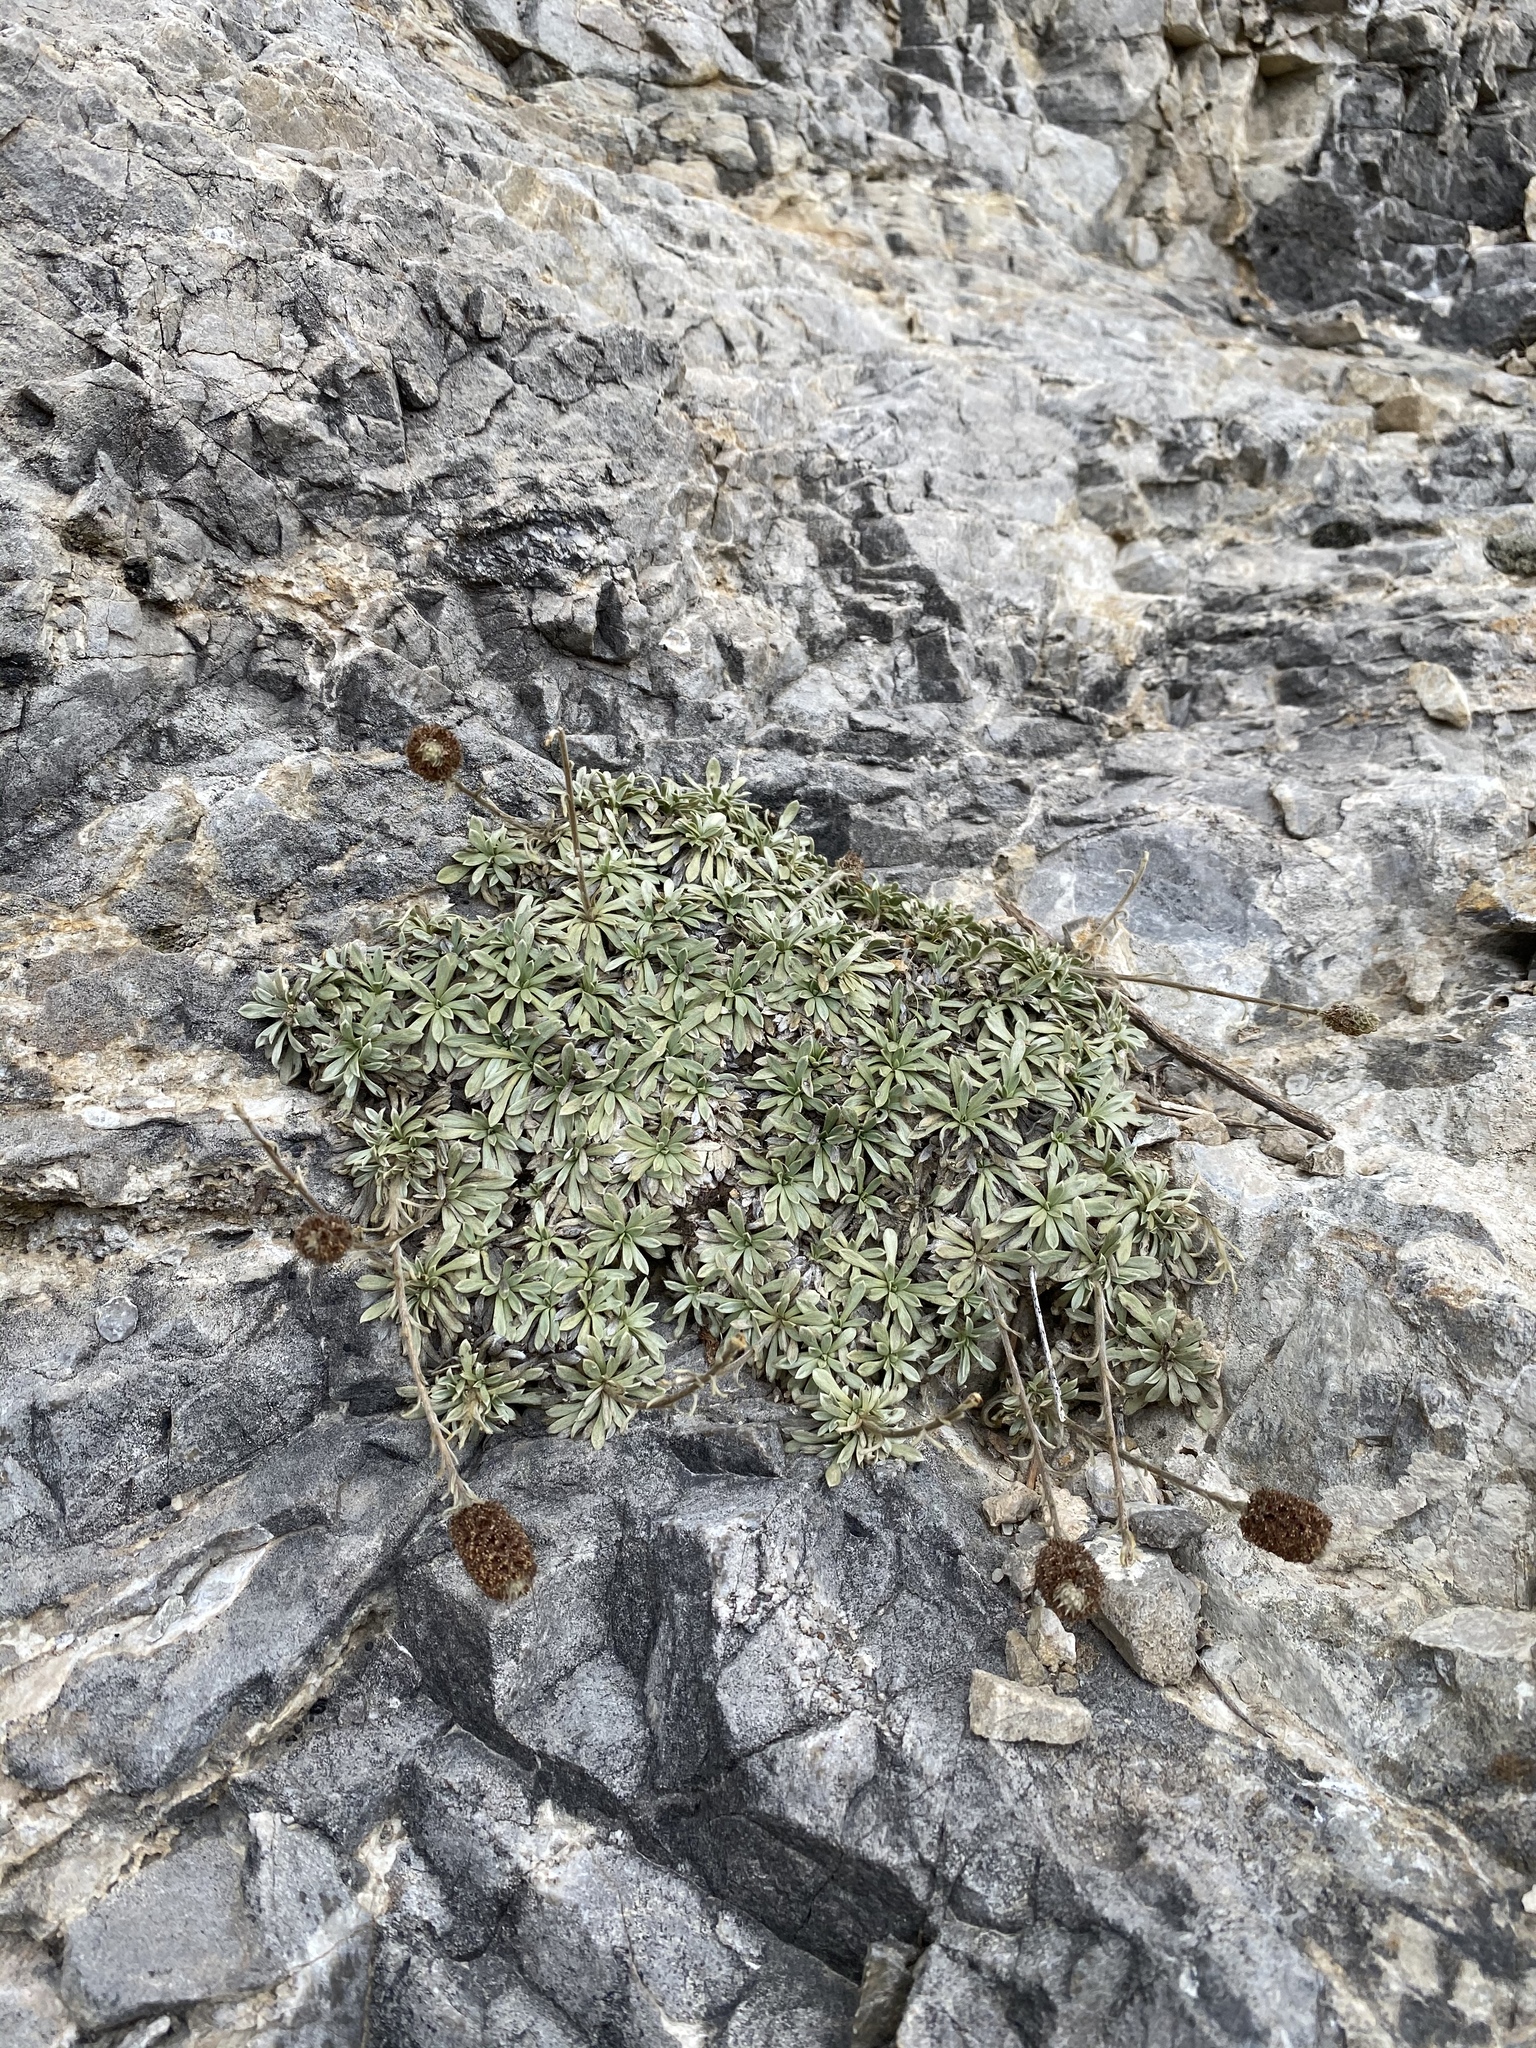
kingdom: Plantae
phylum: Tracheophyta
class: Magnoliopsida
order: Rosales
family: Rosaceae
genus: Petrophytum
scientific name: Petrophytum caespitosum
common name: Mat rockspirea
